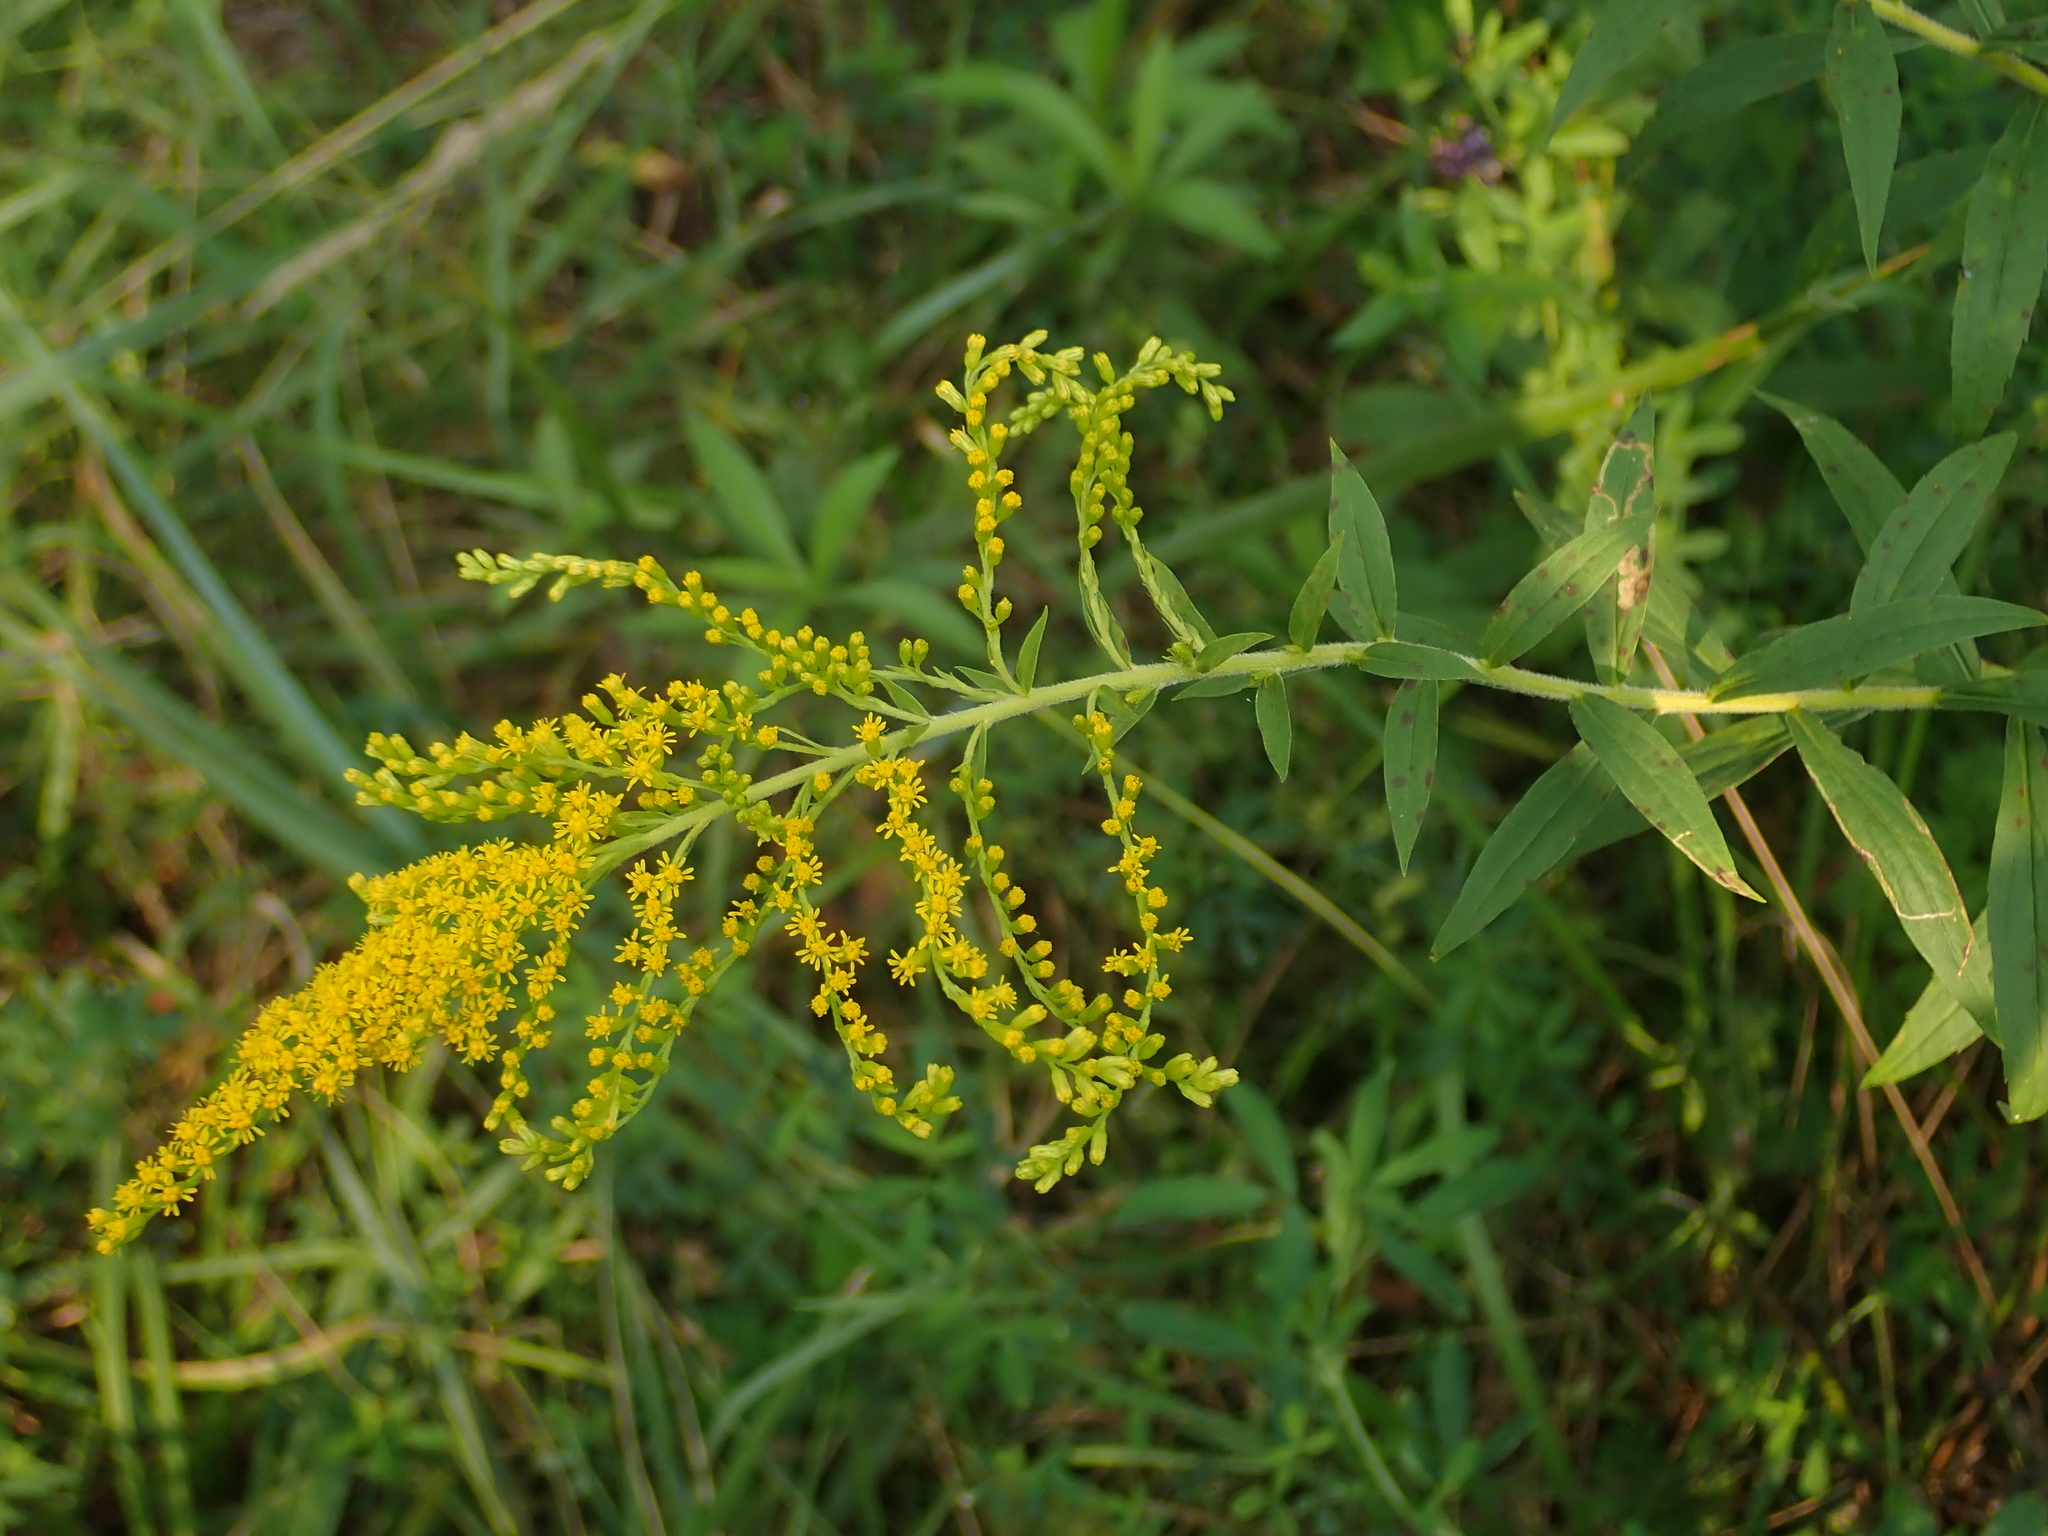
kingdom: Plantae
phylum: Tracheophyta
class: Magnoliopsida
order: Asterales
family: Asteraceae
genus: Solidago
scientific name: Solidago canadensis
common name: Canada goldenrod
